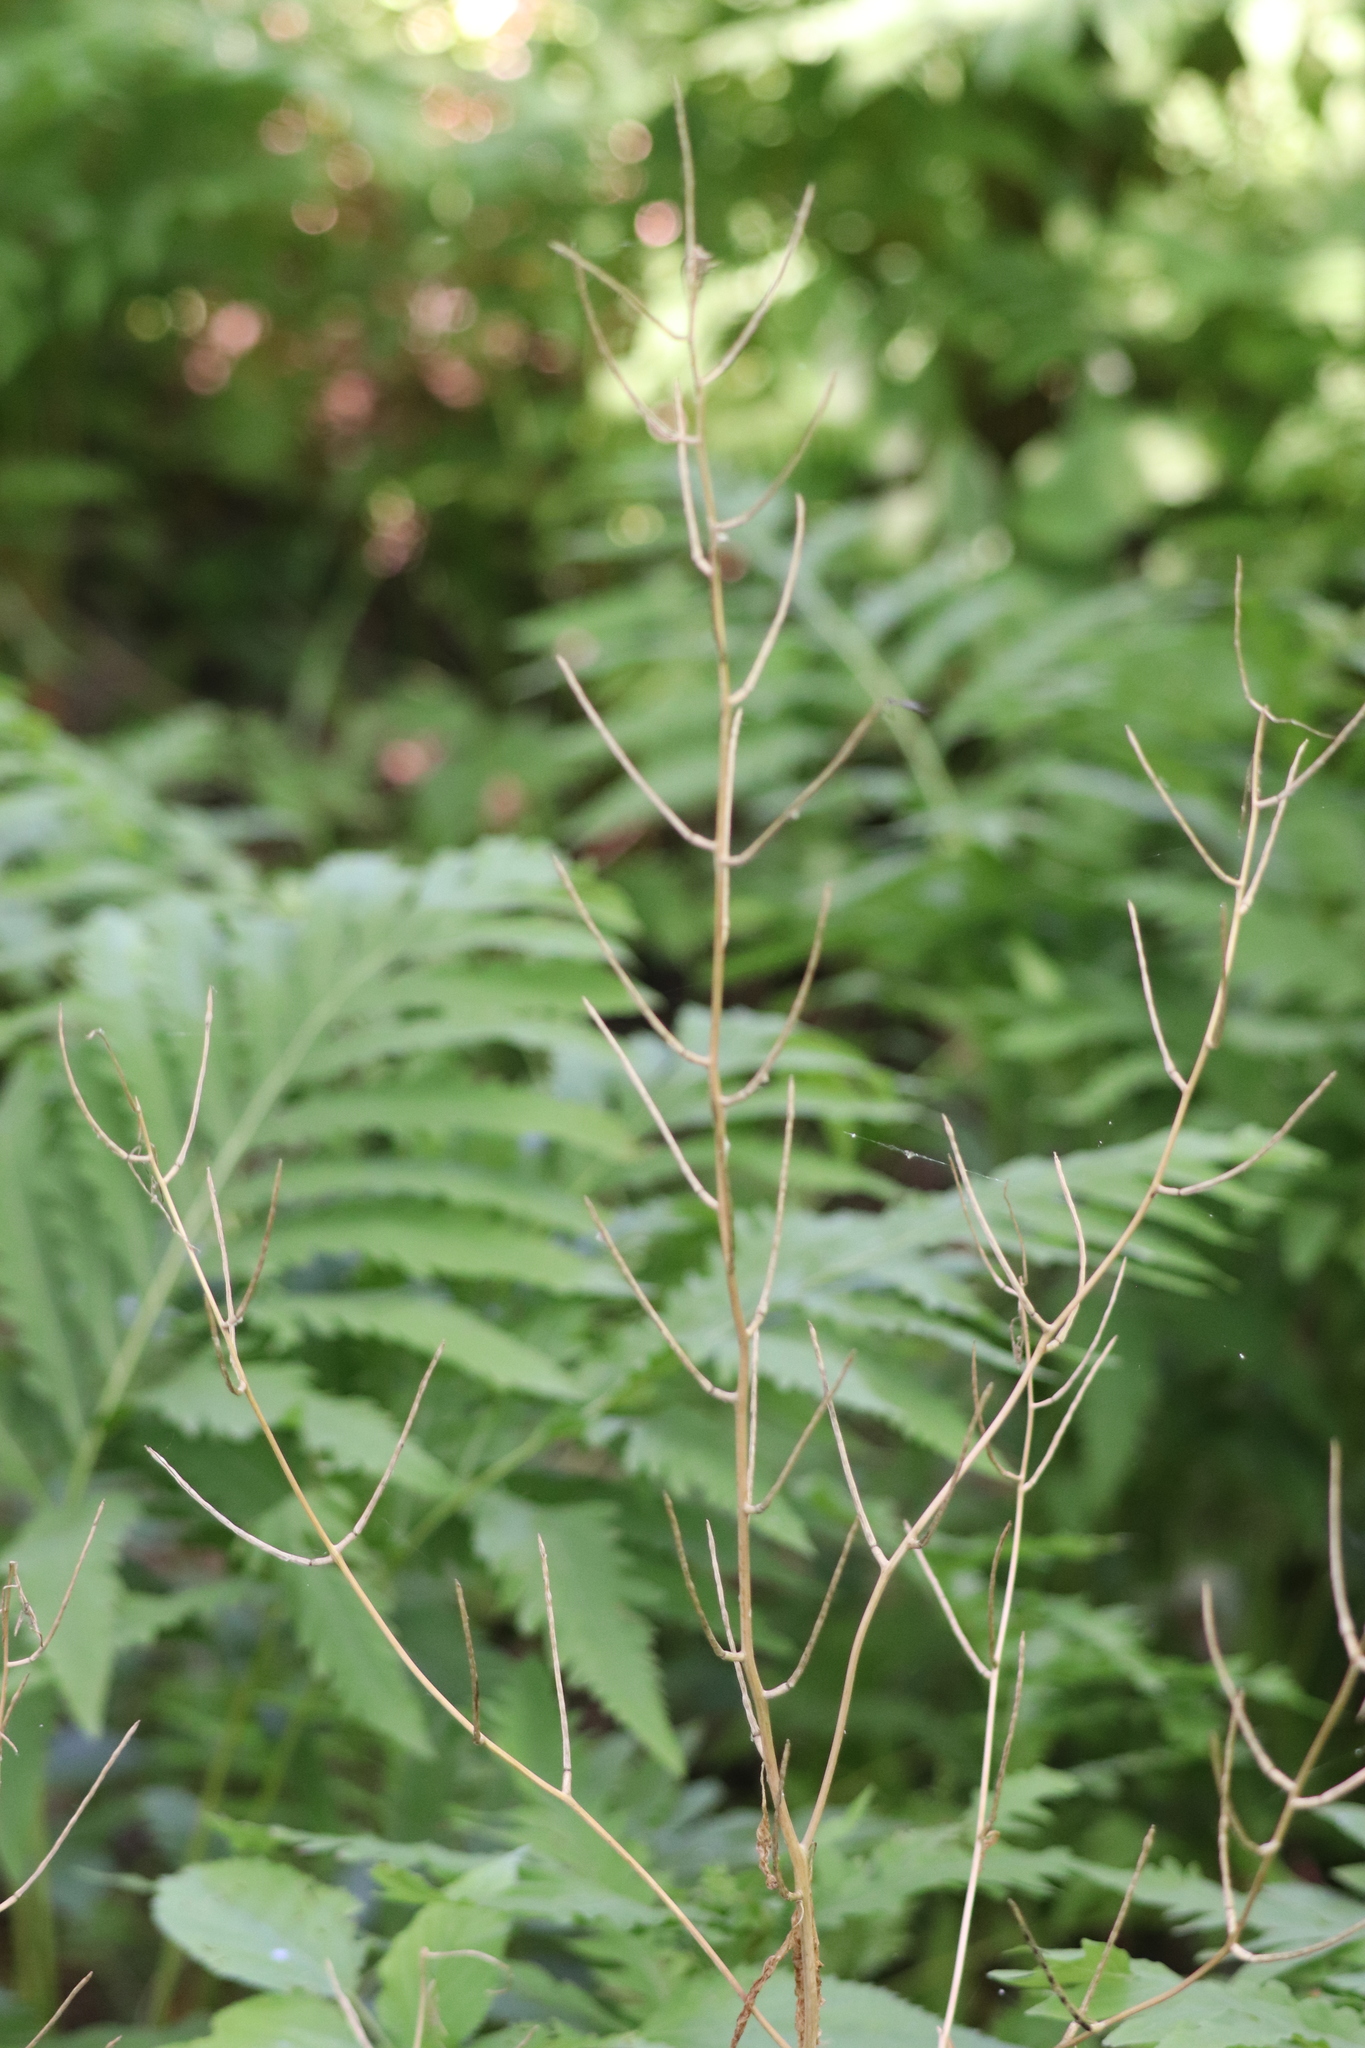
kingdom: Plantae
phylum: Tracheophyta
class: Magnoliopsida
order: Brassicales
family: Brassicaceae
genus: Alliaria
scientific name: Alliaria petiolata
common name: Garlic mustard
